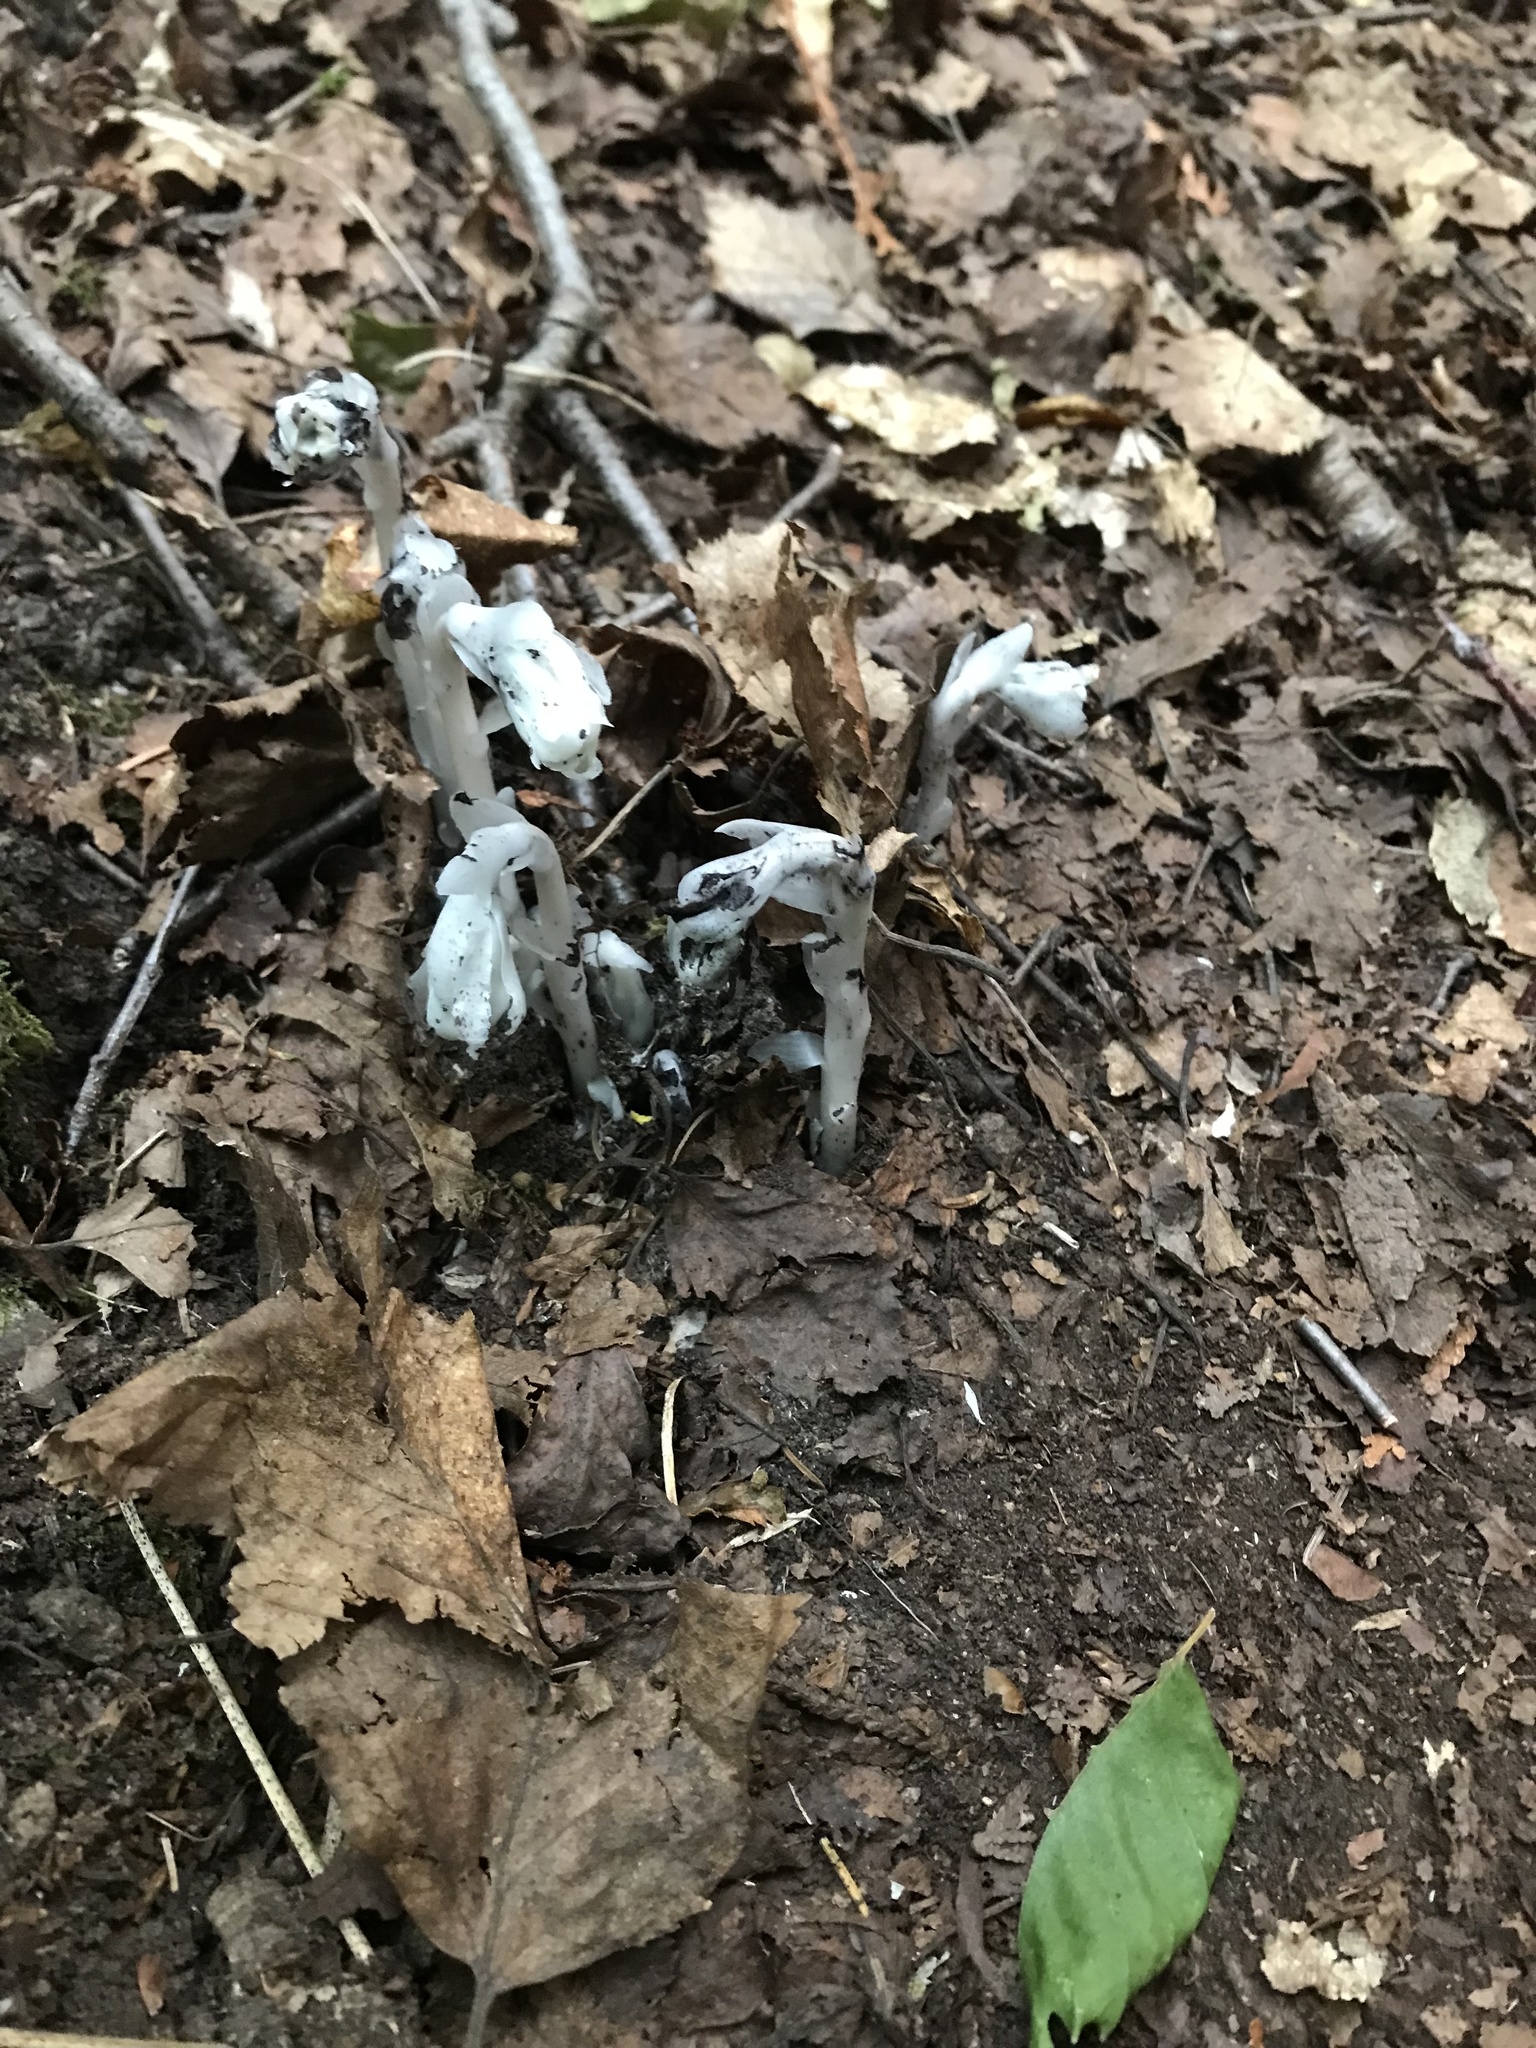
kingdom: Plantae
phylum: Tracheophyta
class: Magnoliopsida
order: Ericales
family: Ericaceae
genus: Monotropa
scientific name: Monotropa uniflora
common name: Convulsion root
